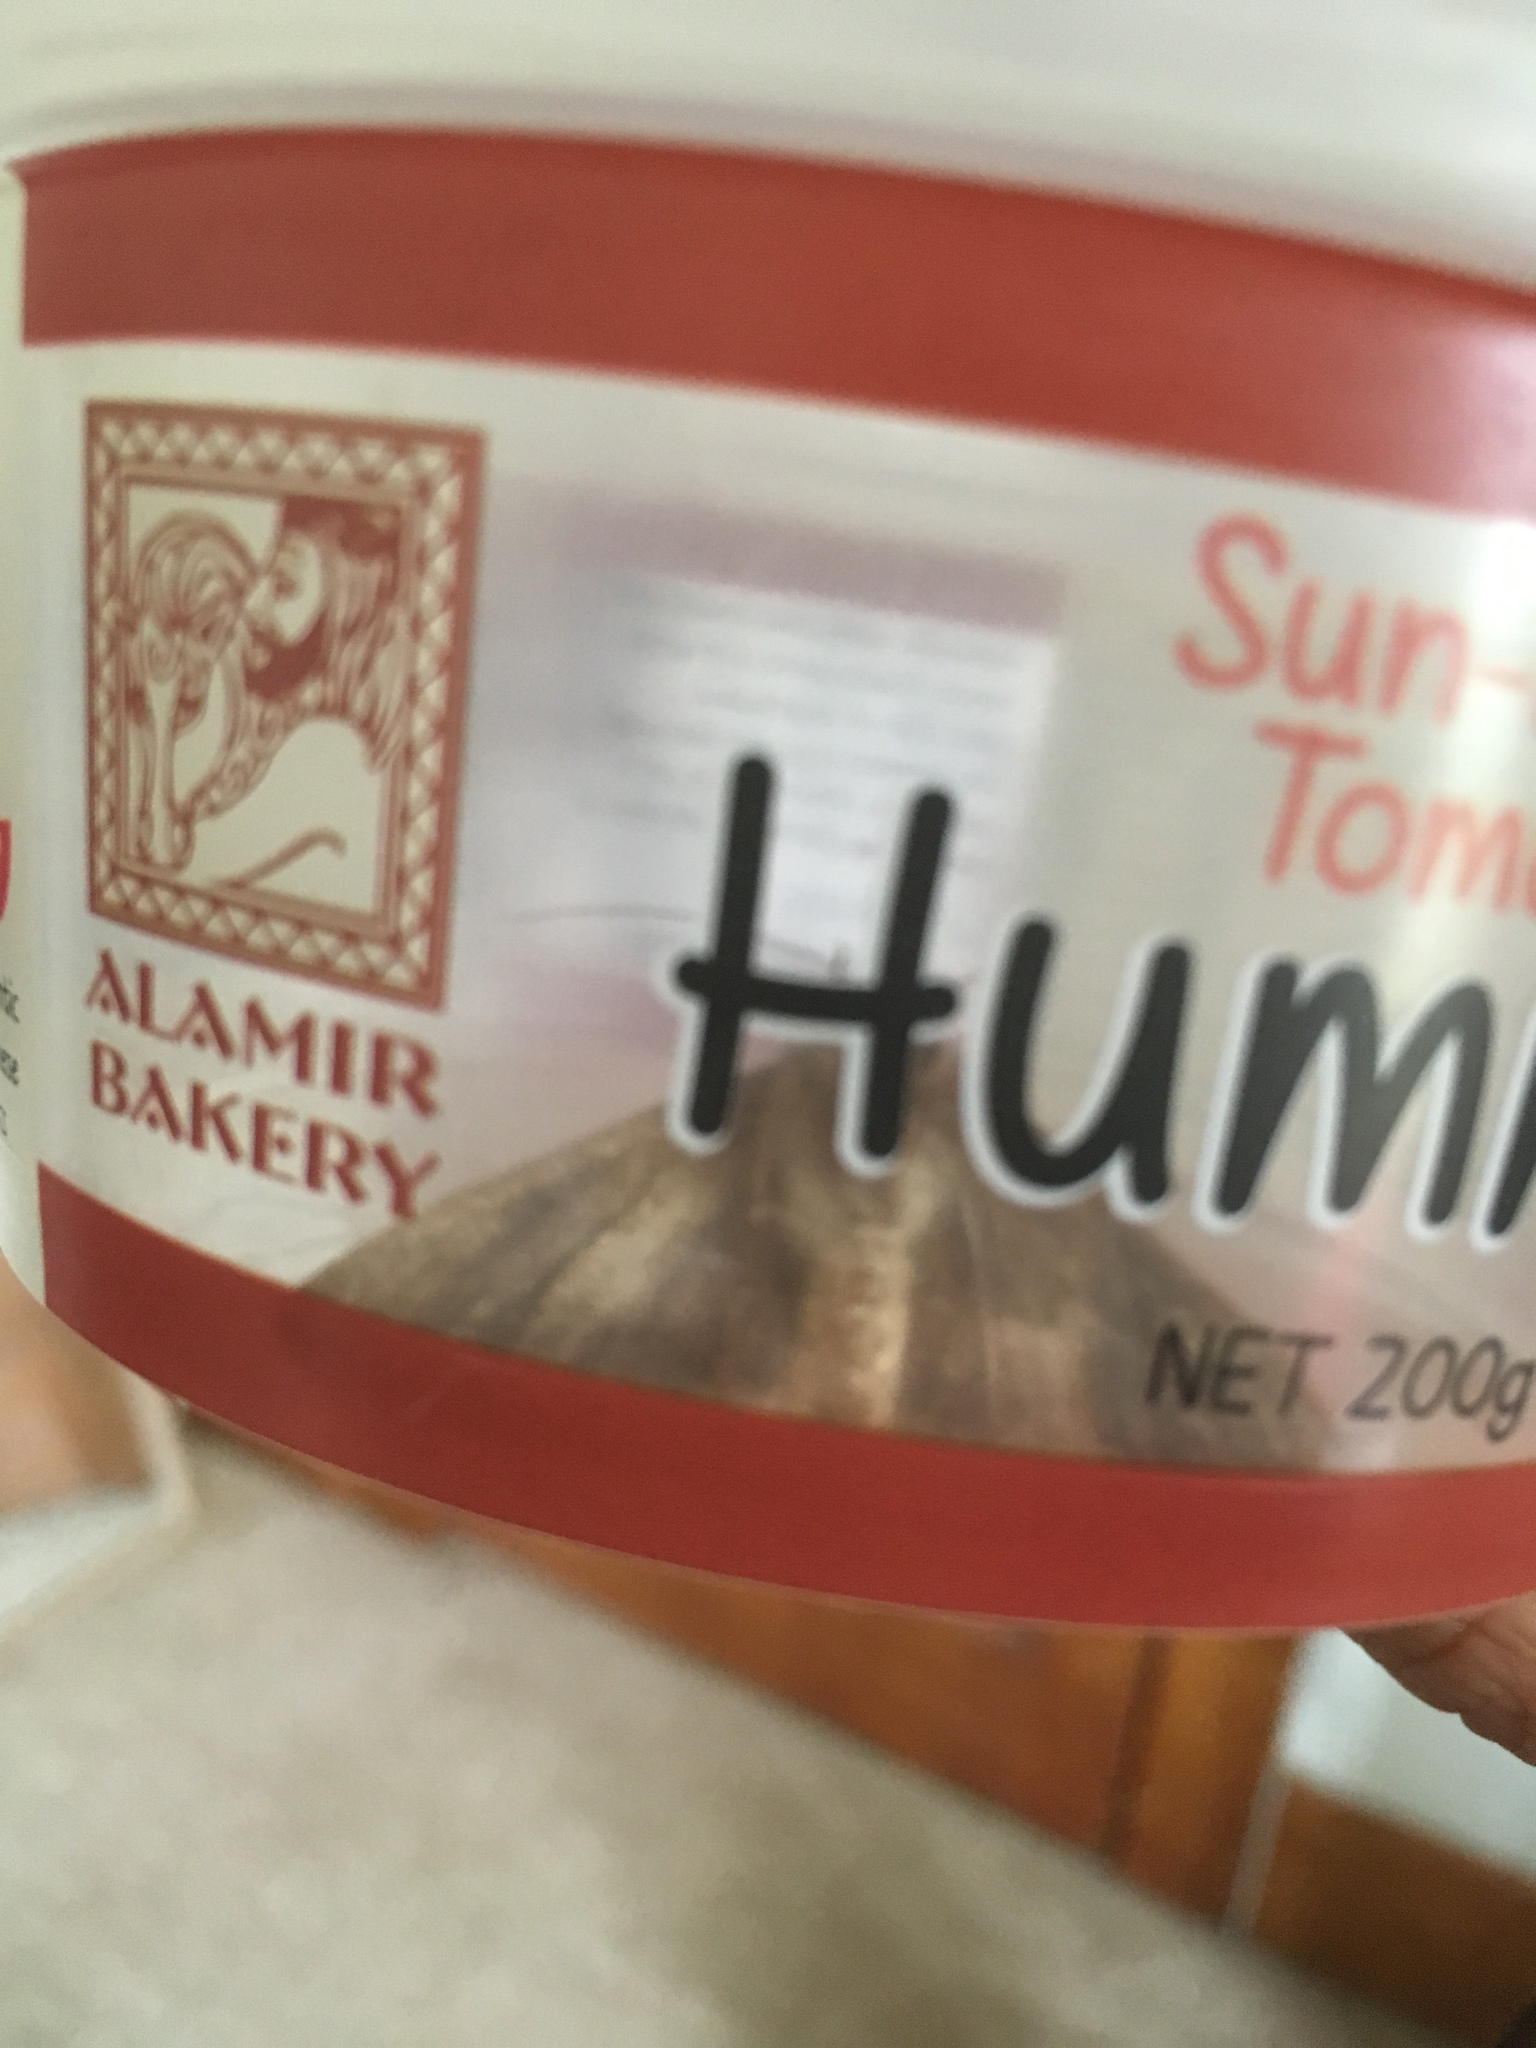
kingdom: Animalia
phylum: Arthropoda
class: Insecta
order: Lepidoptera
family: Noctuidae
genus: Chrysodeixis
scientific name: Chrysodeixis eriosoma
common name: Green garden looper
